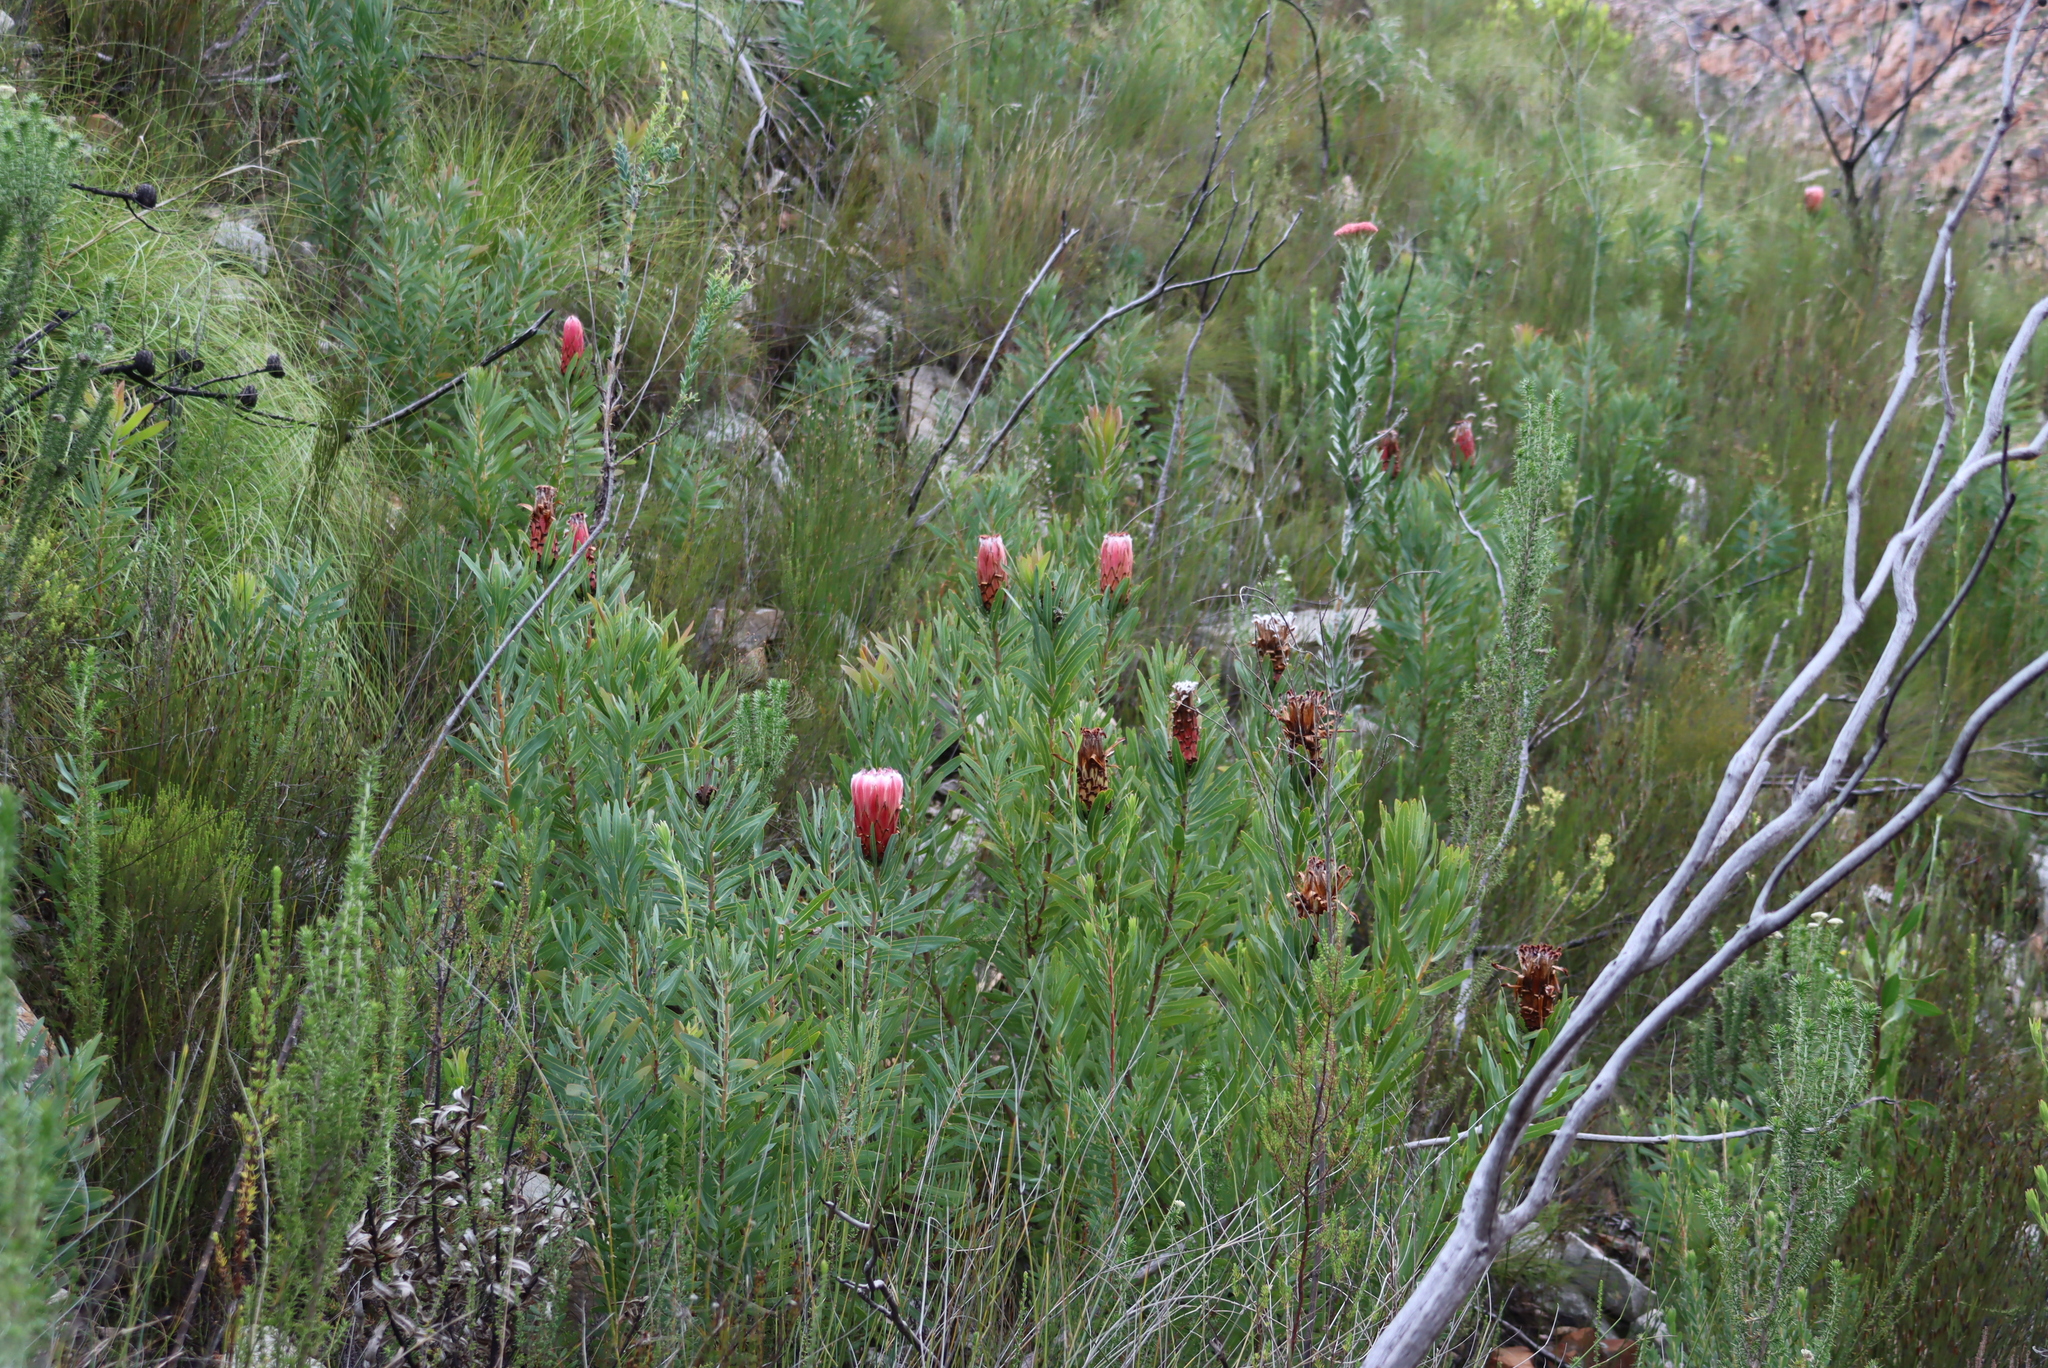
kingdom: Plantae
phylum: Tracheophyta
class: Magnoliopsida
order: Proteales
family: Proteaceae
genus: Protea
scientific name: Protea neriifolia
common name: Blue sugarbush
